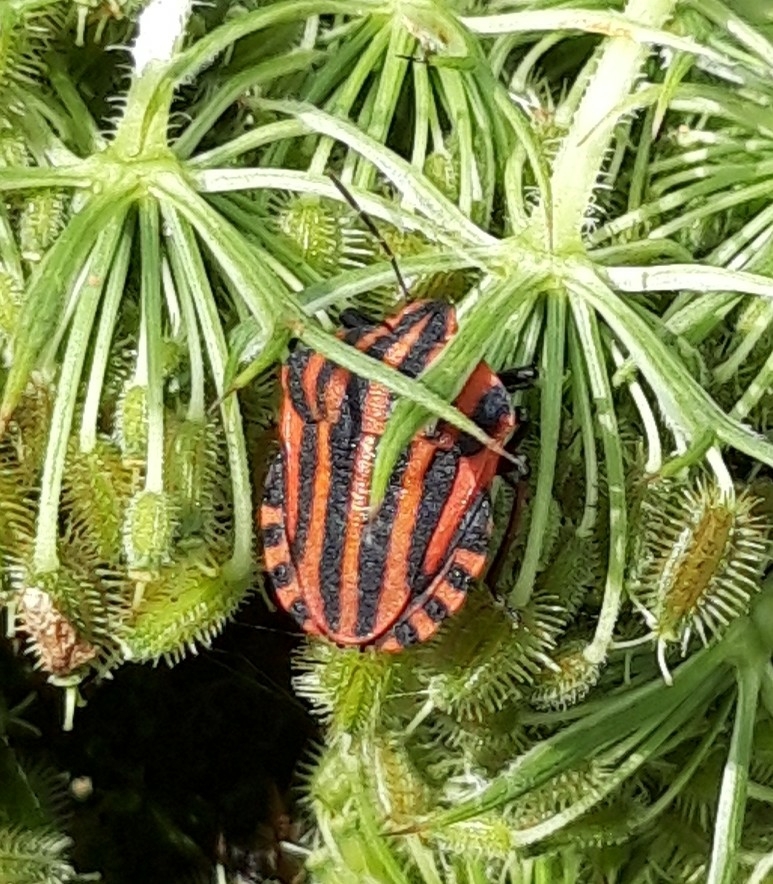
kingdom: Animalia
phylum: Arthropoda
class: Insecta
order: Hemiptera
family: Pentatomidae
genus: Graphosoma
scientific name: Graphosoma italicum
